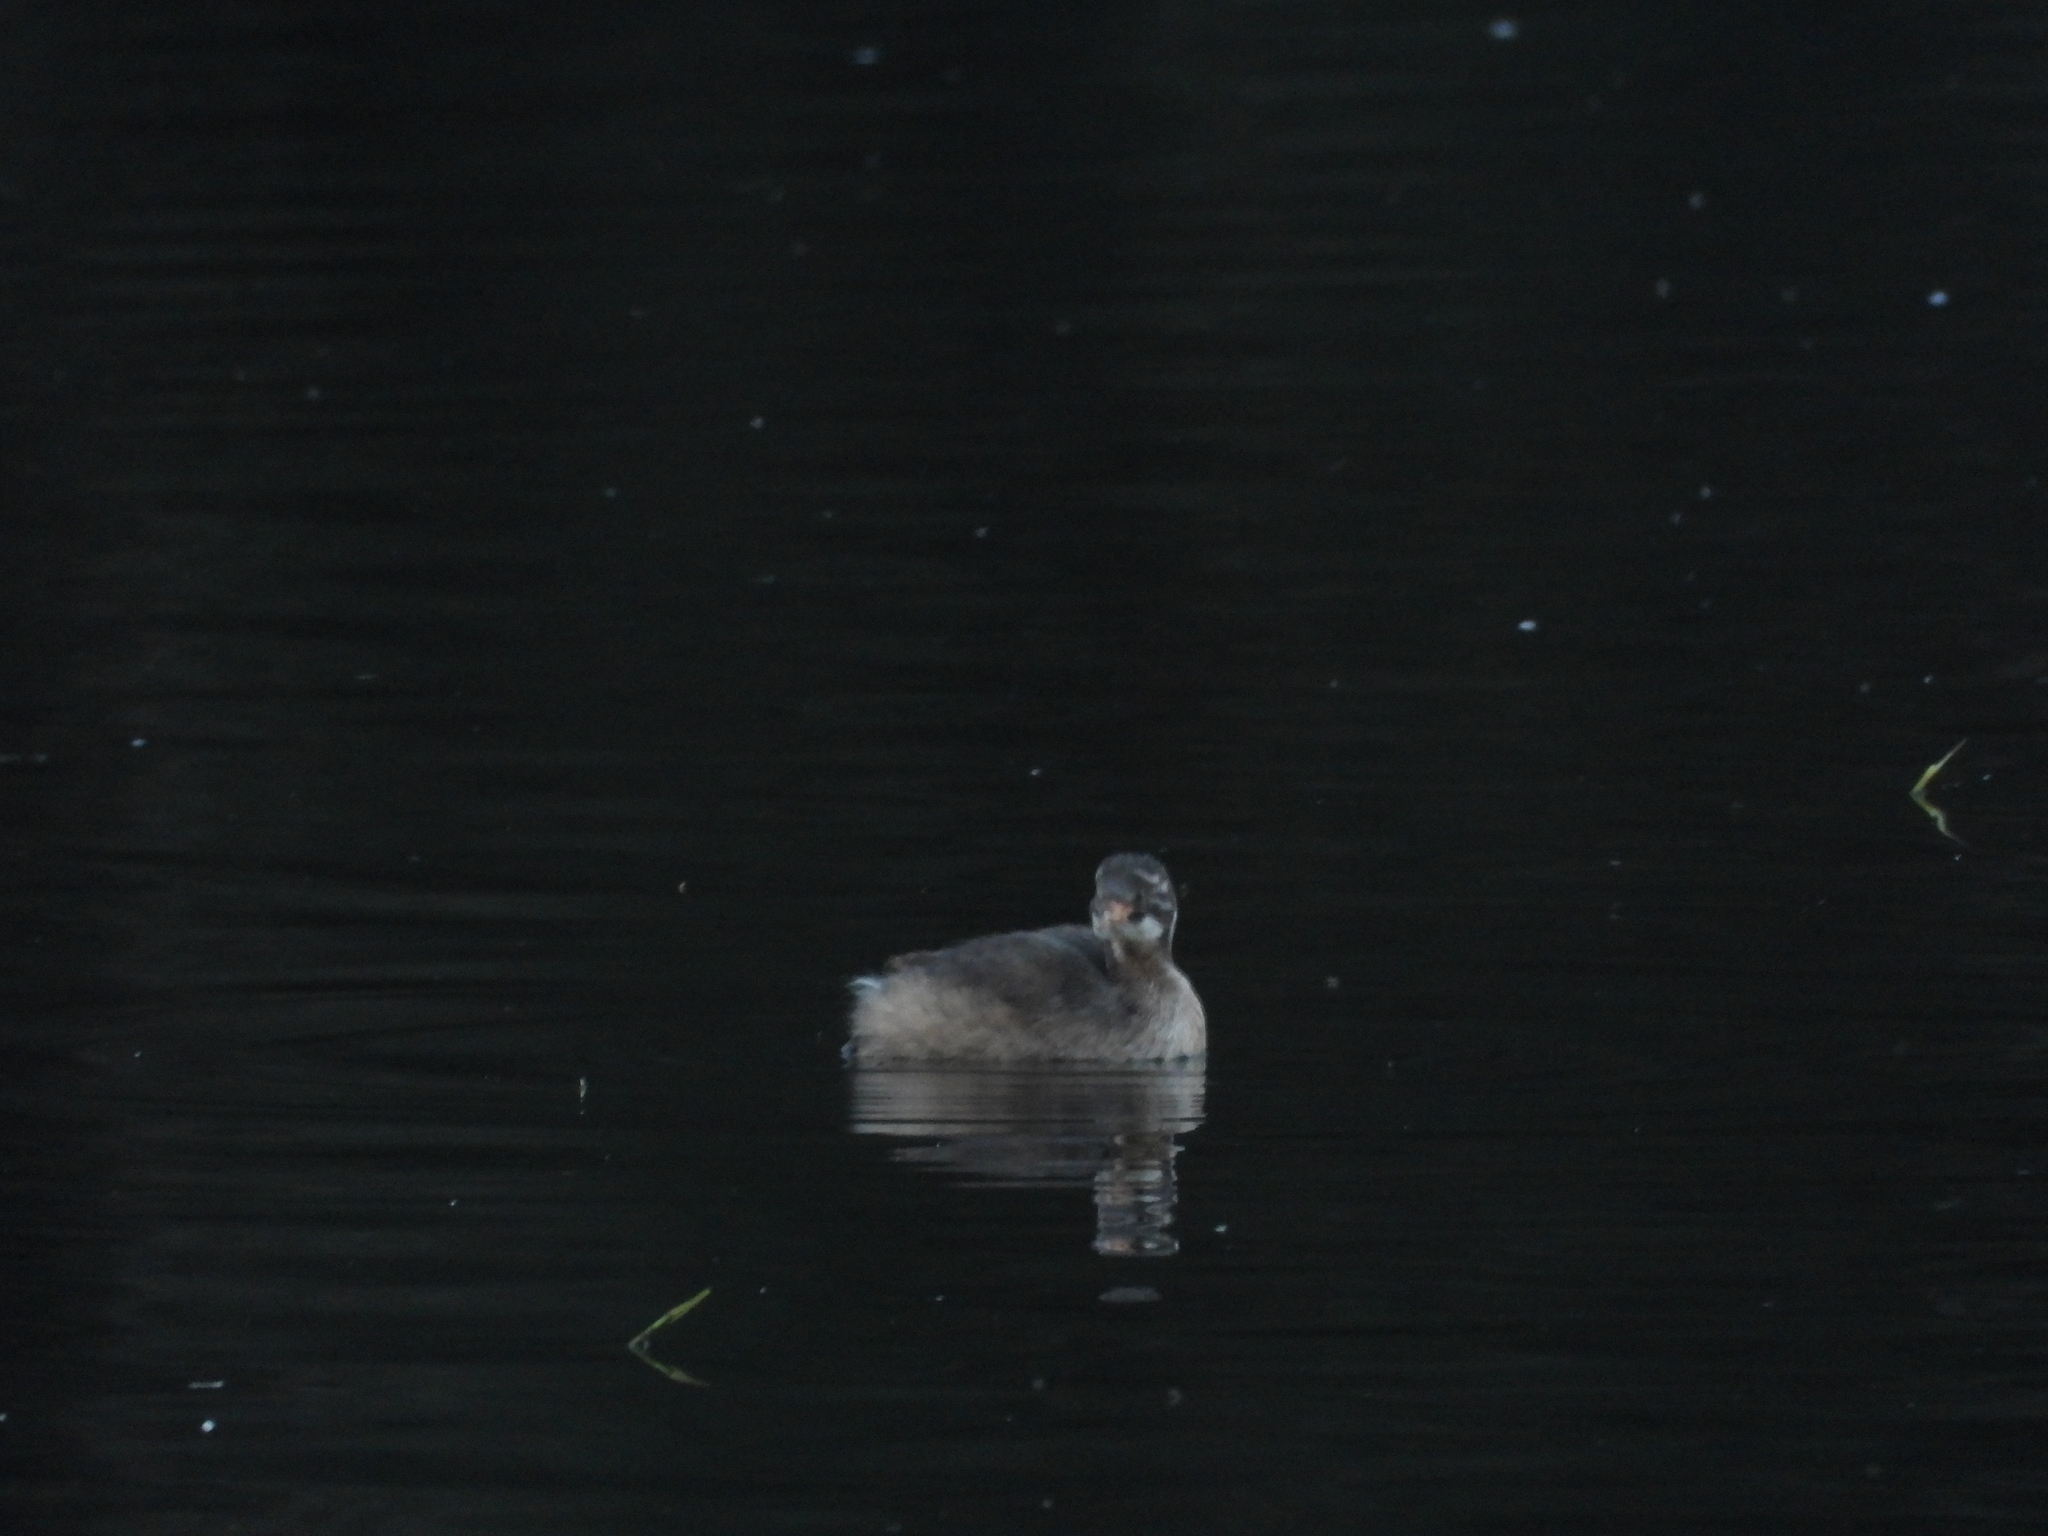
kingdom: Animalia
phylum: Chordata
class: Aves
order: Podicipediformes
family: Podicipedidae
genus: Tachybaptus
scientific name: Tachybaptus ruficollis
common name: Little grebe
